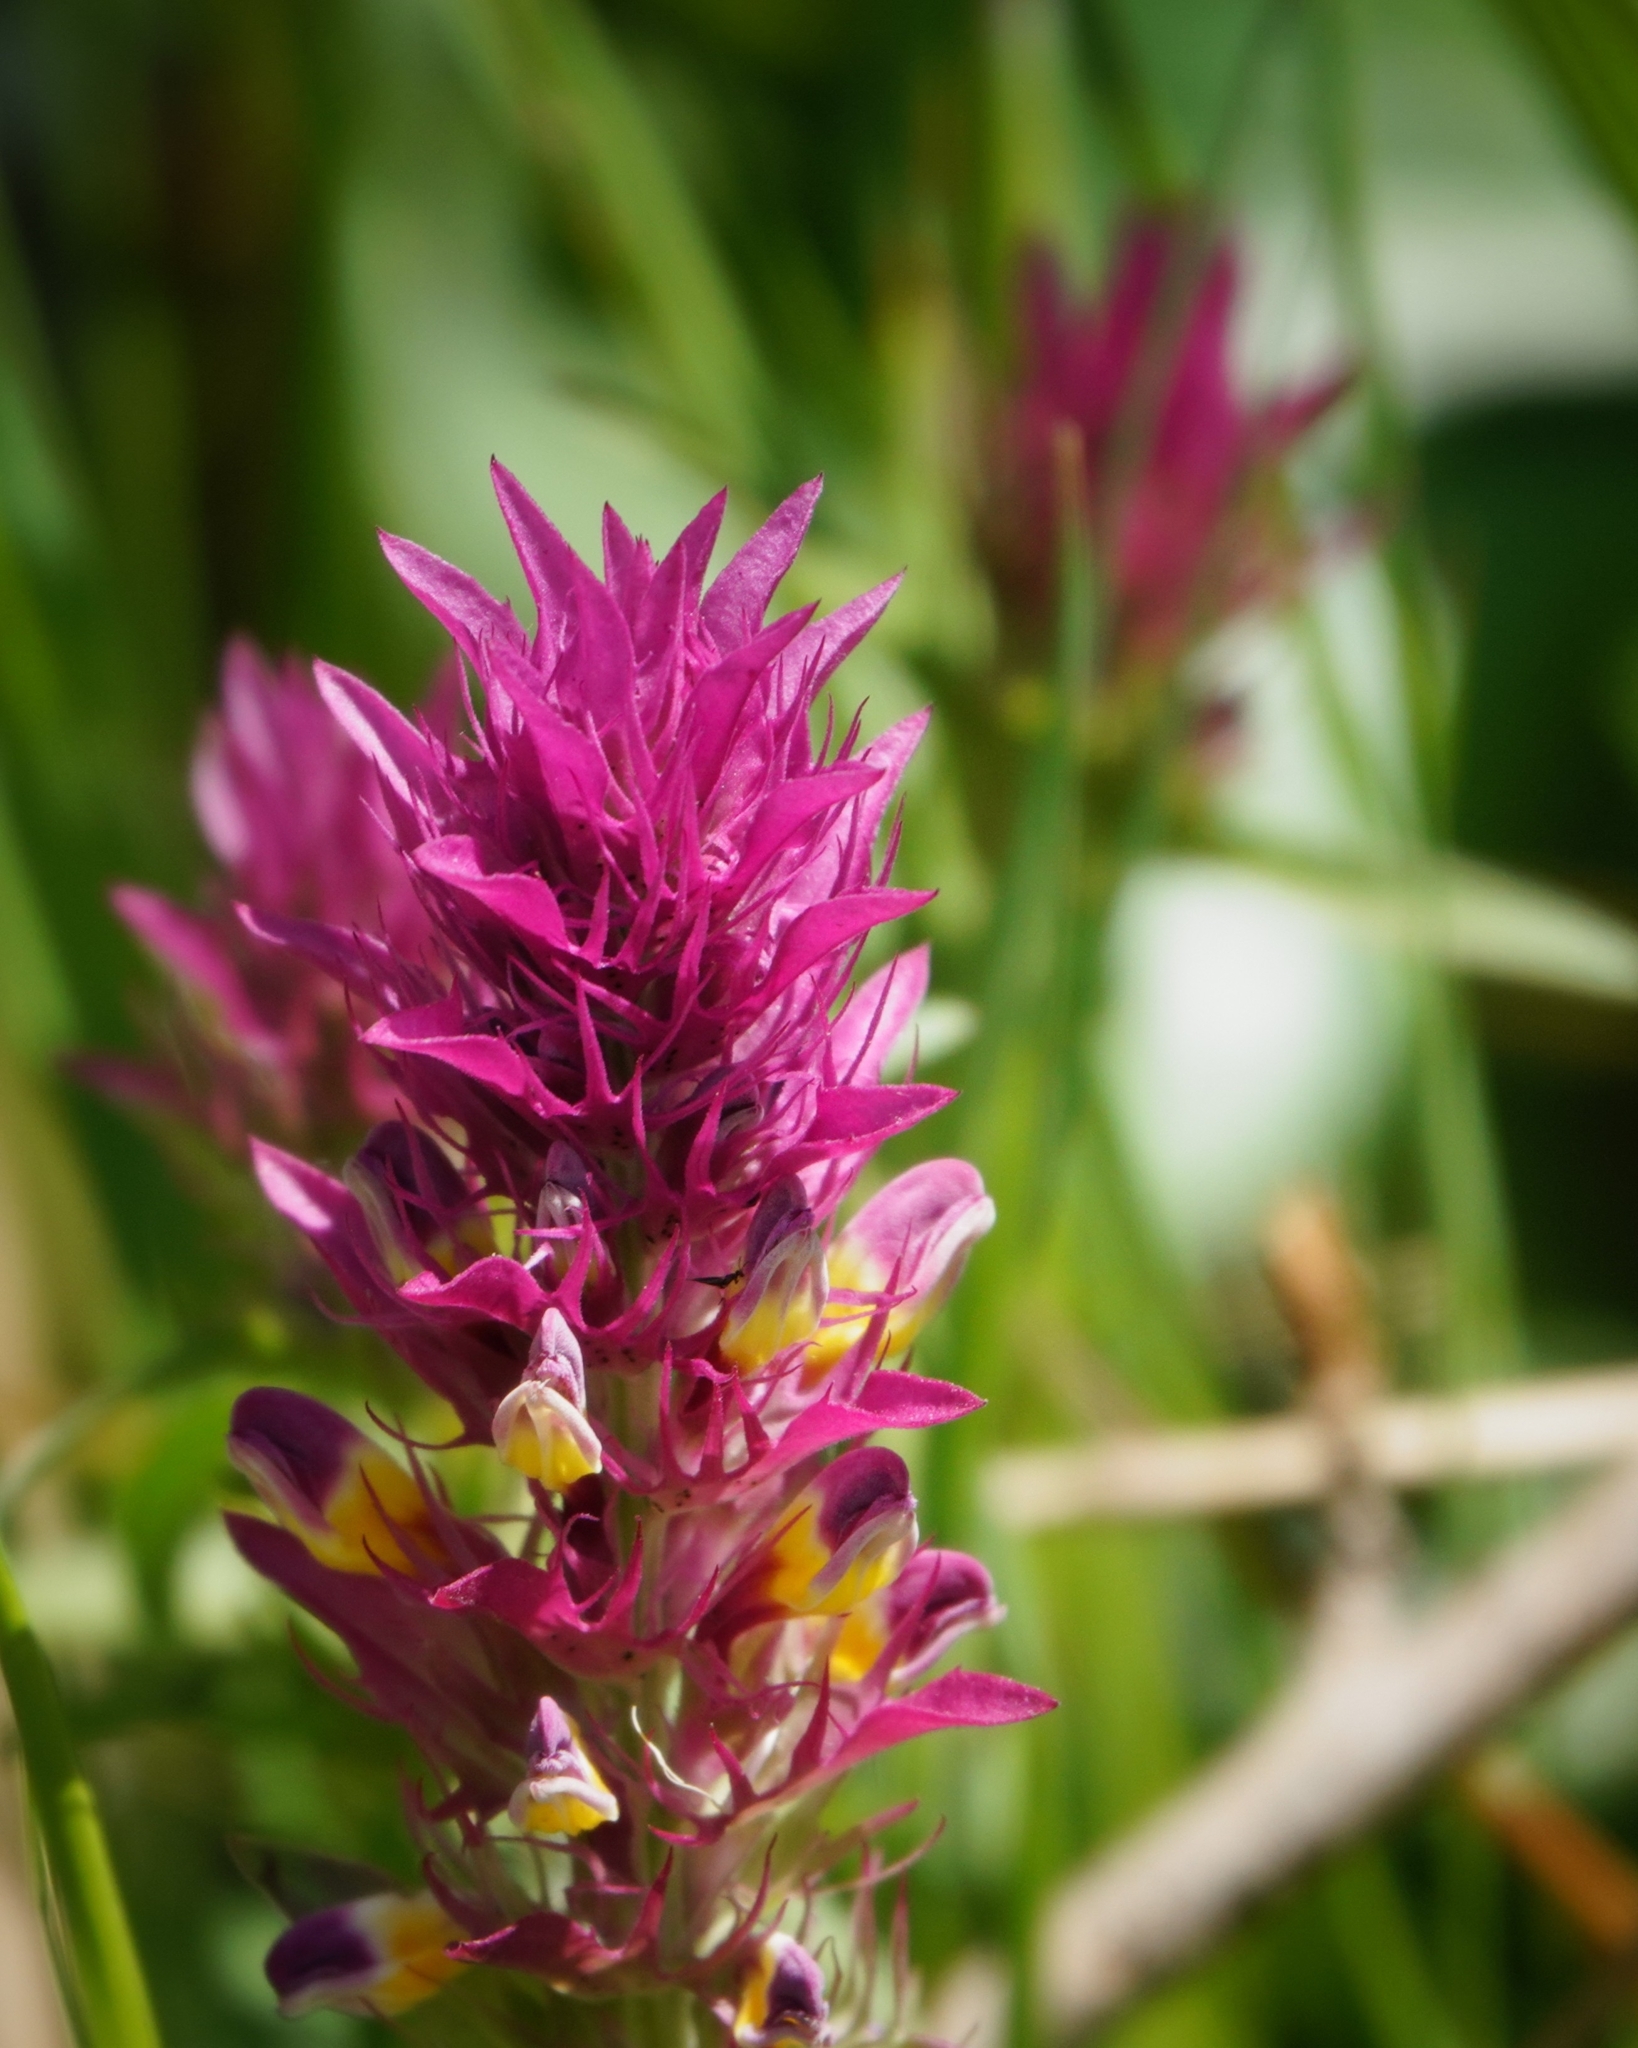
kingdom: Plantae
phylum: Tracheophyta
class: Magnoliopsida
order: Lamiales
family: Orobanchaceae
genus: Melampyrum
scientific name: Melampyrum arvense
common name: Field cow-wheat
